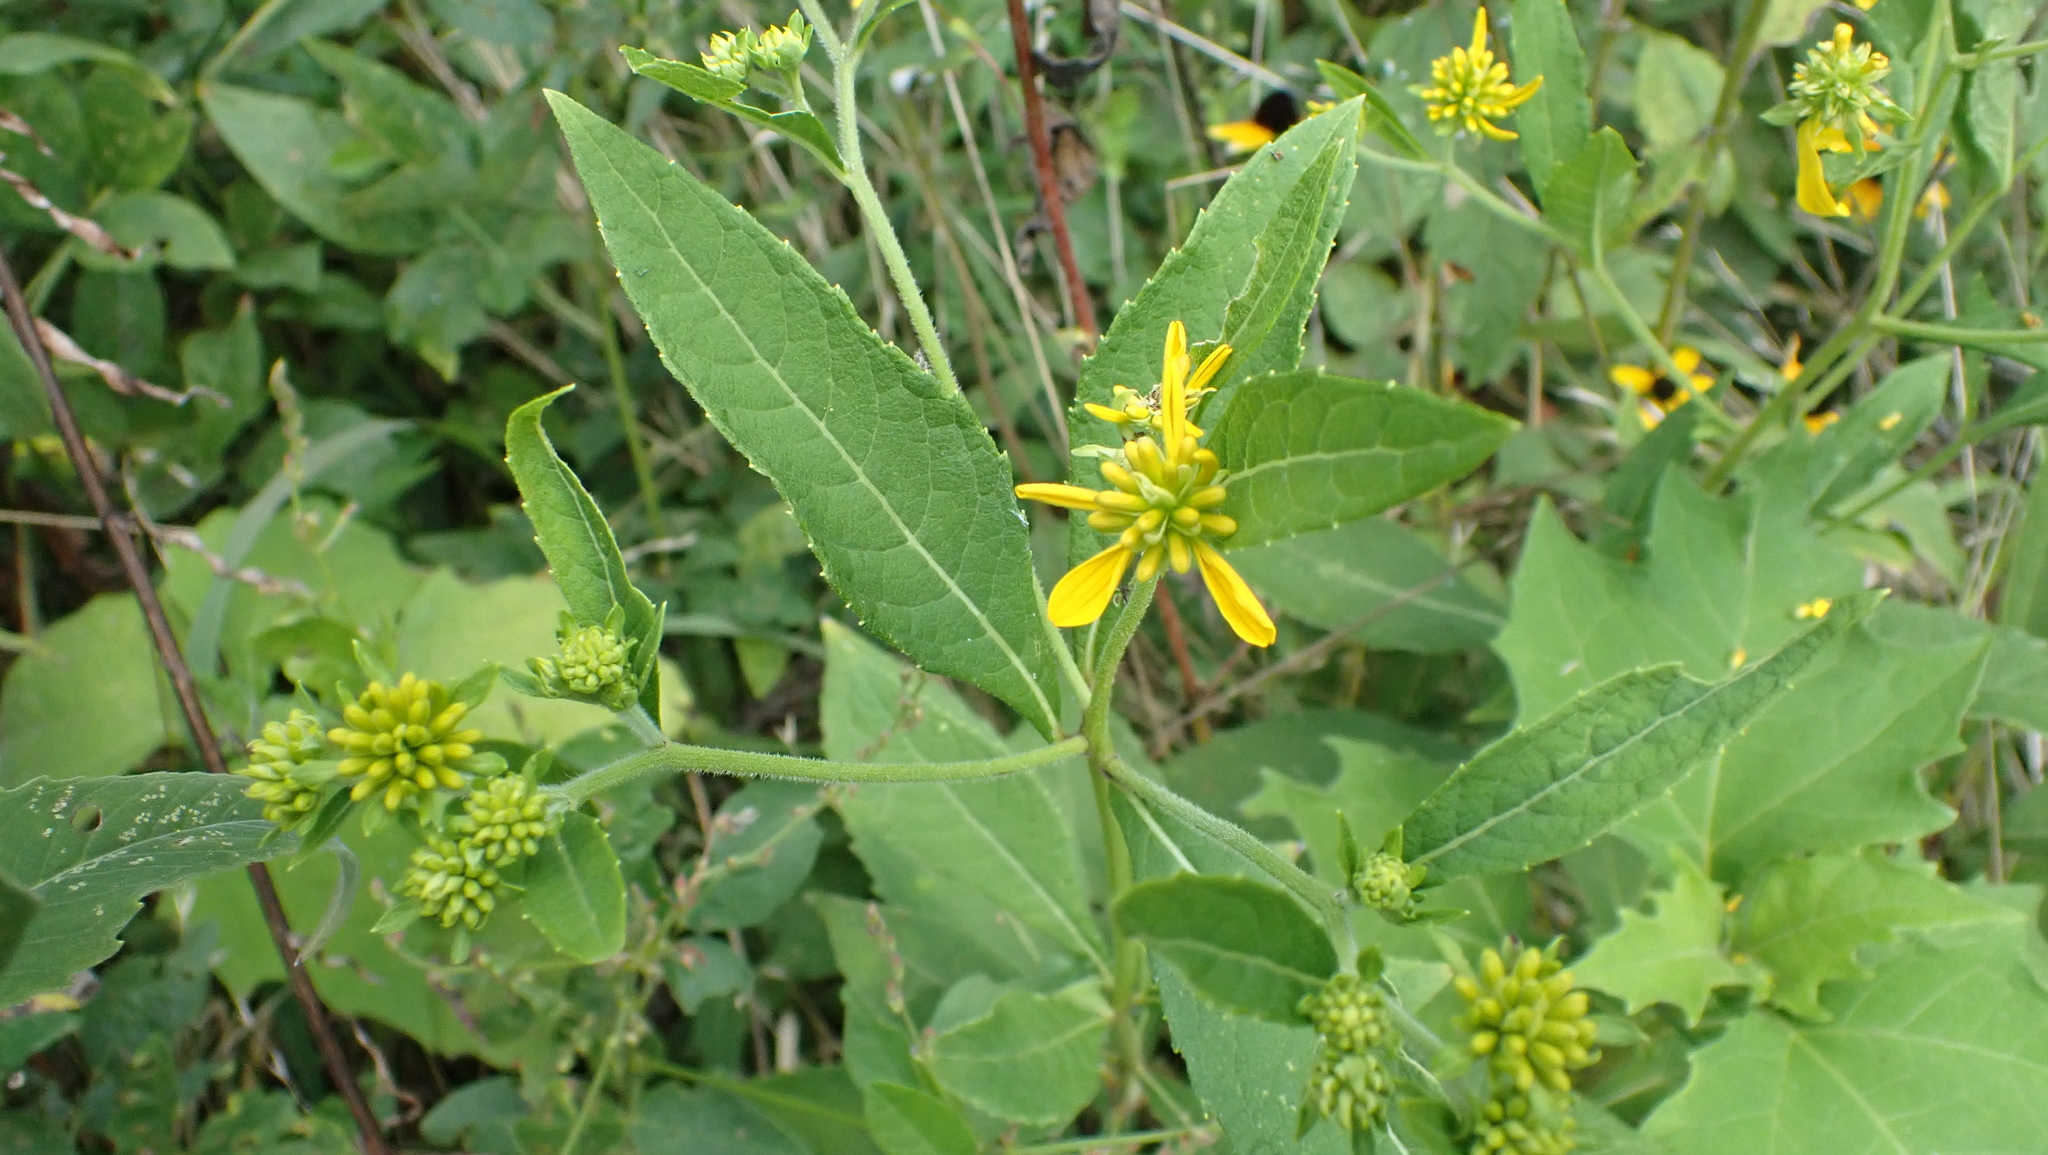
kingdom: Plantae
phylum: Tracheophyta
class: Magnoliopsida
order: Asterales
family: Asteraceae
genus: Verbesina
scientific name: Verbesina alternifolia
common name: Wingstem
